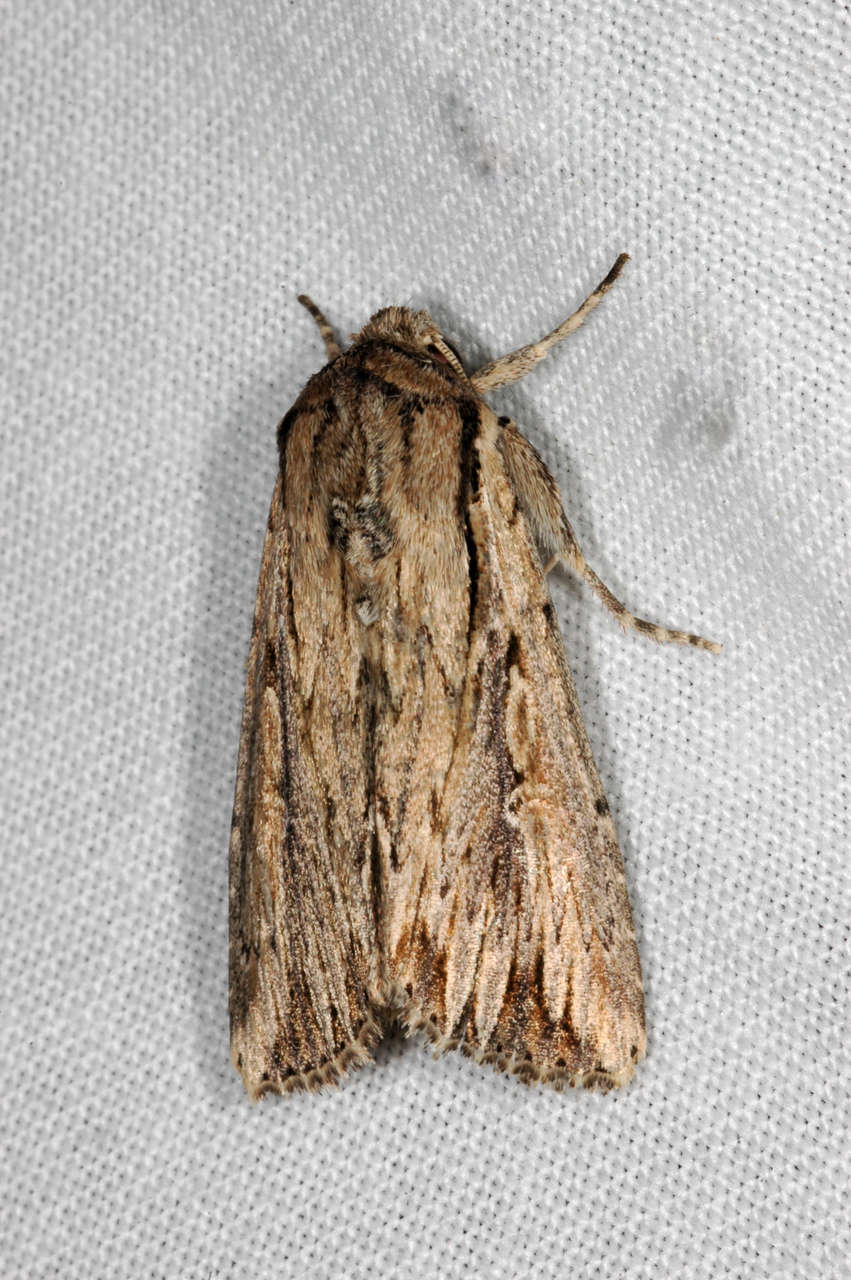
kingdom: Animalia
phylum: Arthropoda
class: Insecta
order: Lepidoptera
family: Noctuidae
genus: Persectania
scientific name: Persectania dyscrita
